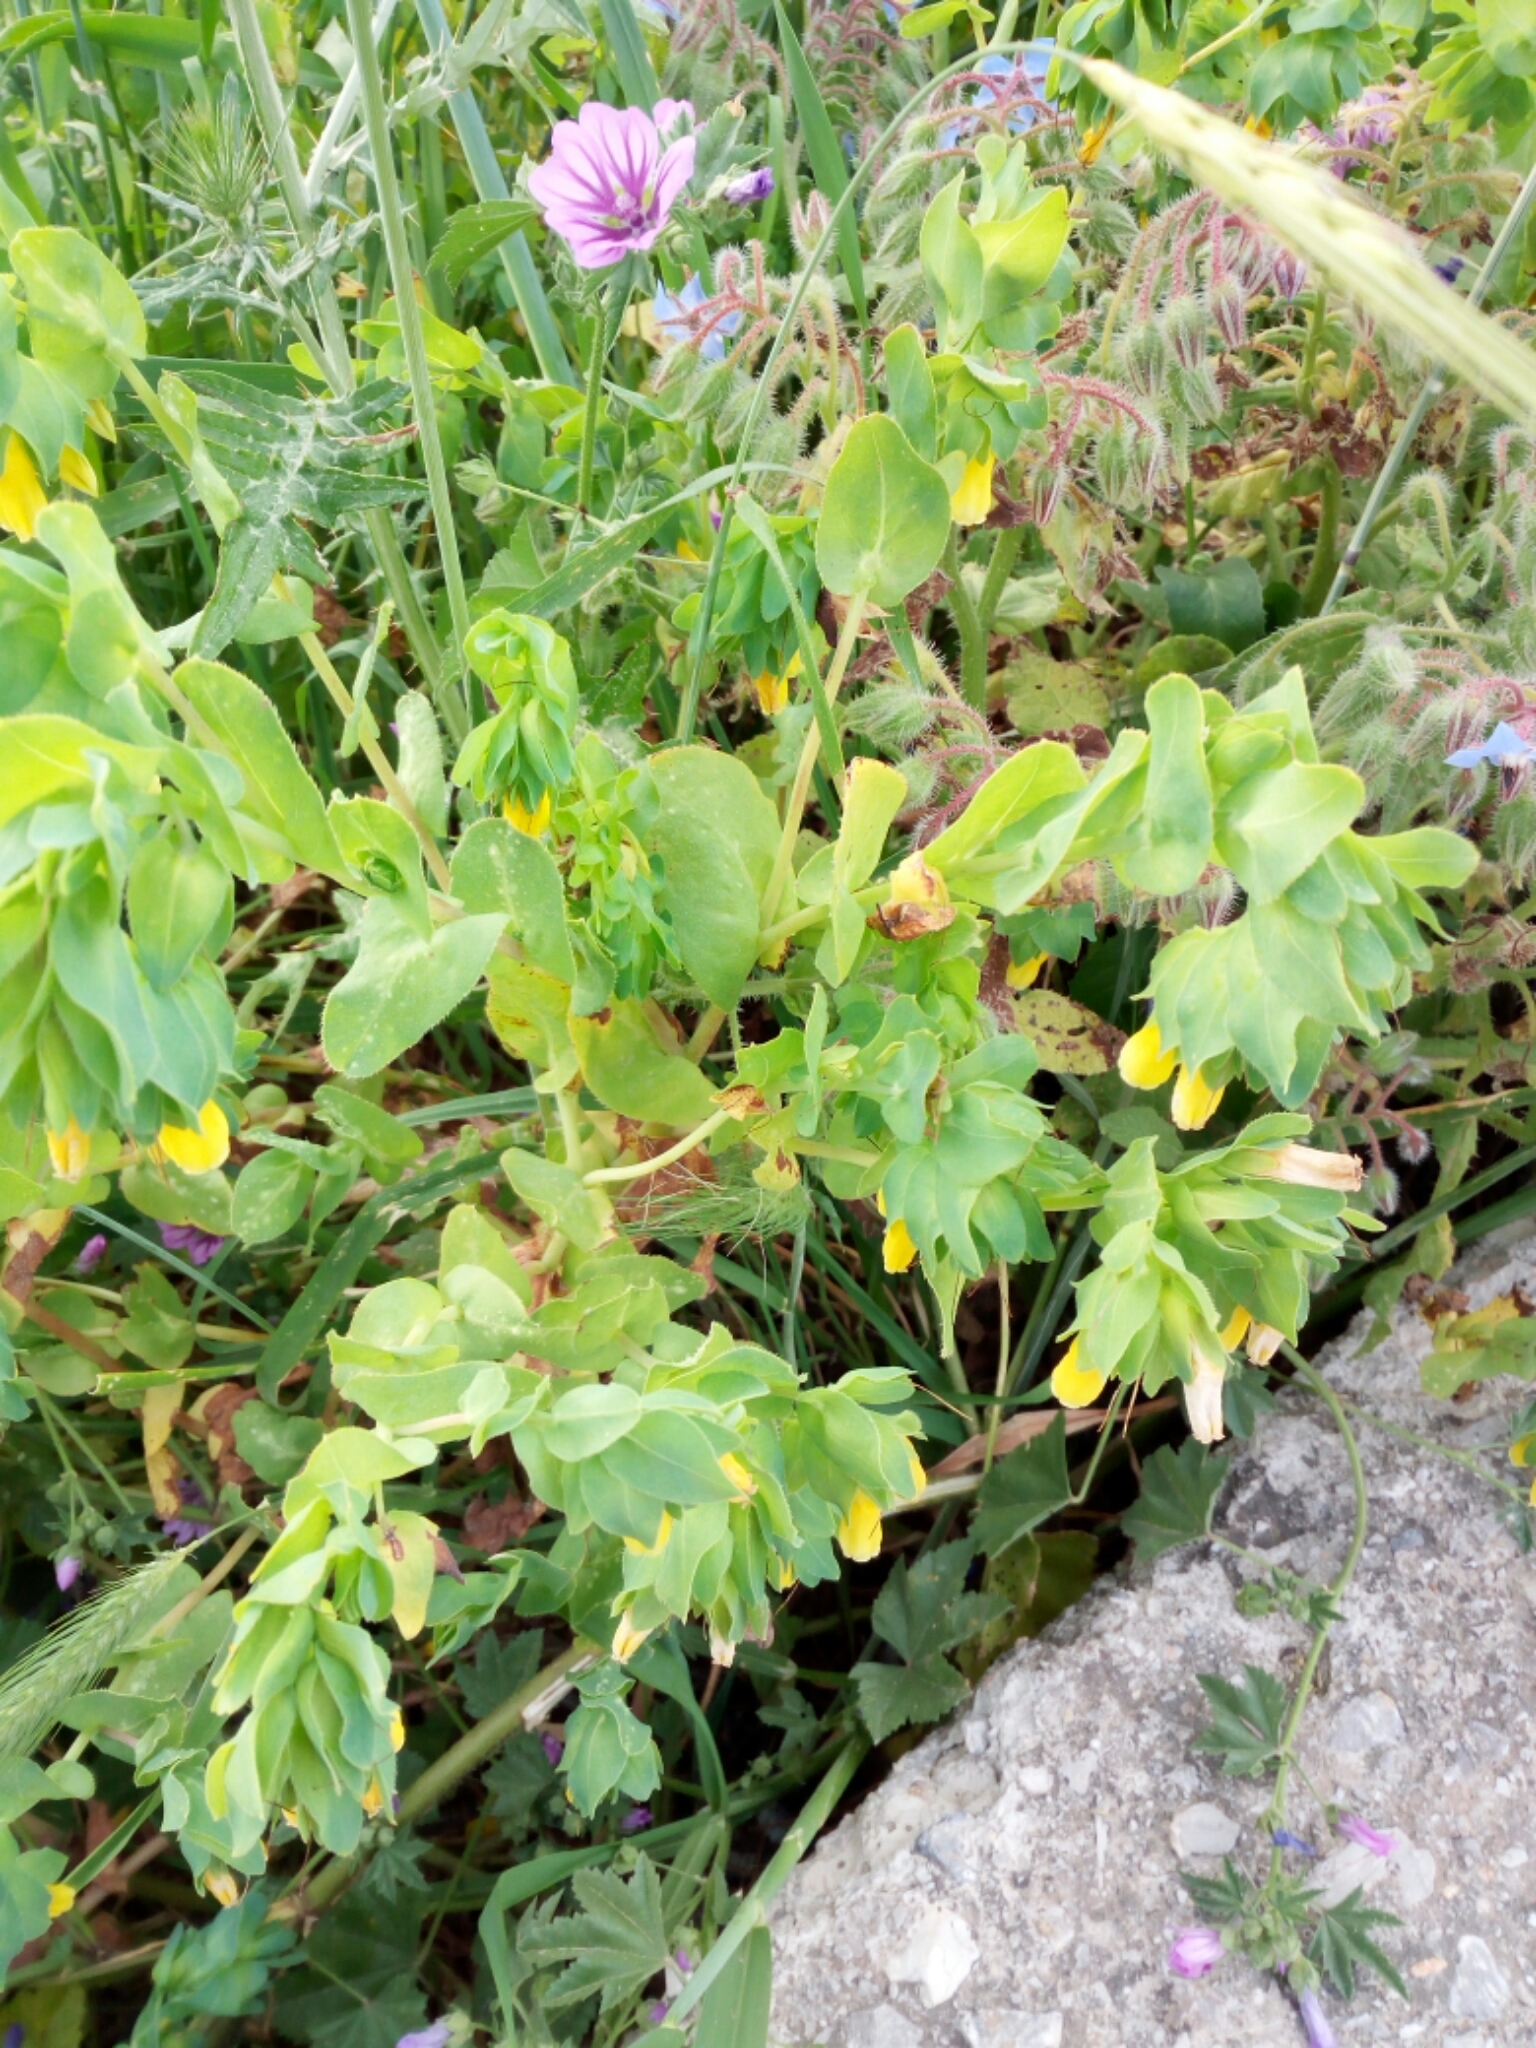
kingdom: Plantae
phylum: Tracheophyta
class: Magnoliopsida
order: Boraginales
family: Boraginaceae
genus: Cerinthe
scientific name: Cerinthe major
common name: Greater honeywort
